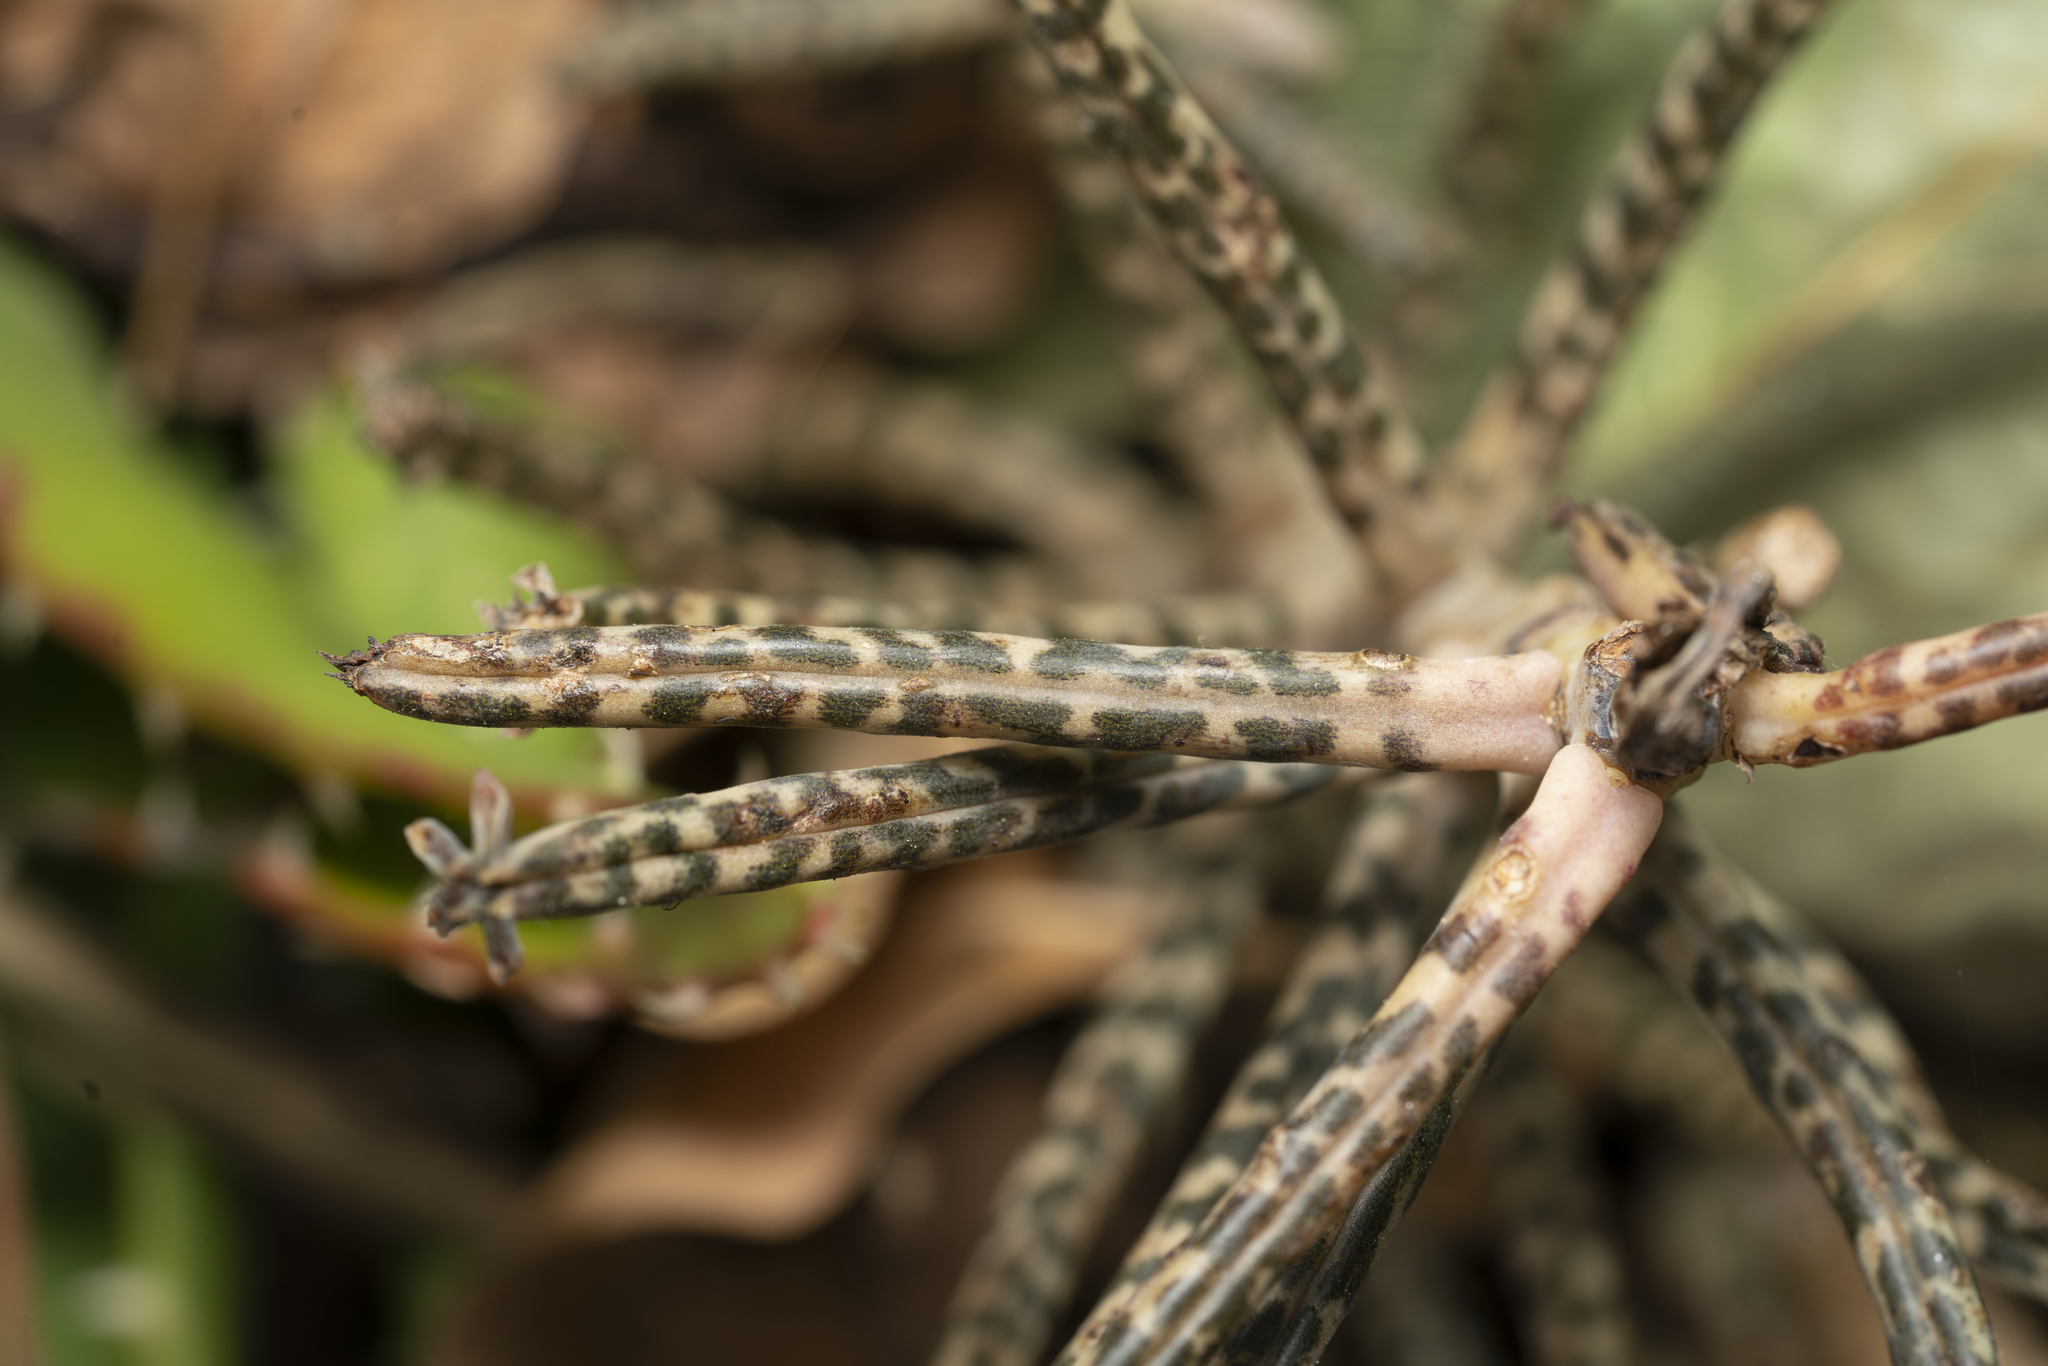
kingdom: Plantae
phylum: Tracheophyta
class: Magnoliopsida
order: Saxifragales
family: Crassulaceae
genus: Kalanchoe
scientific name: Kalanchoe delagoensis
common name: Chandelier plant
